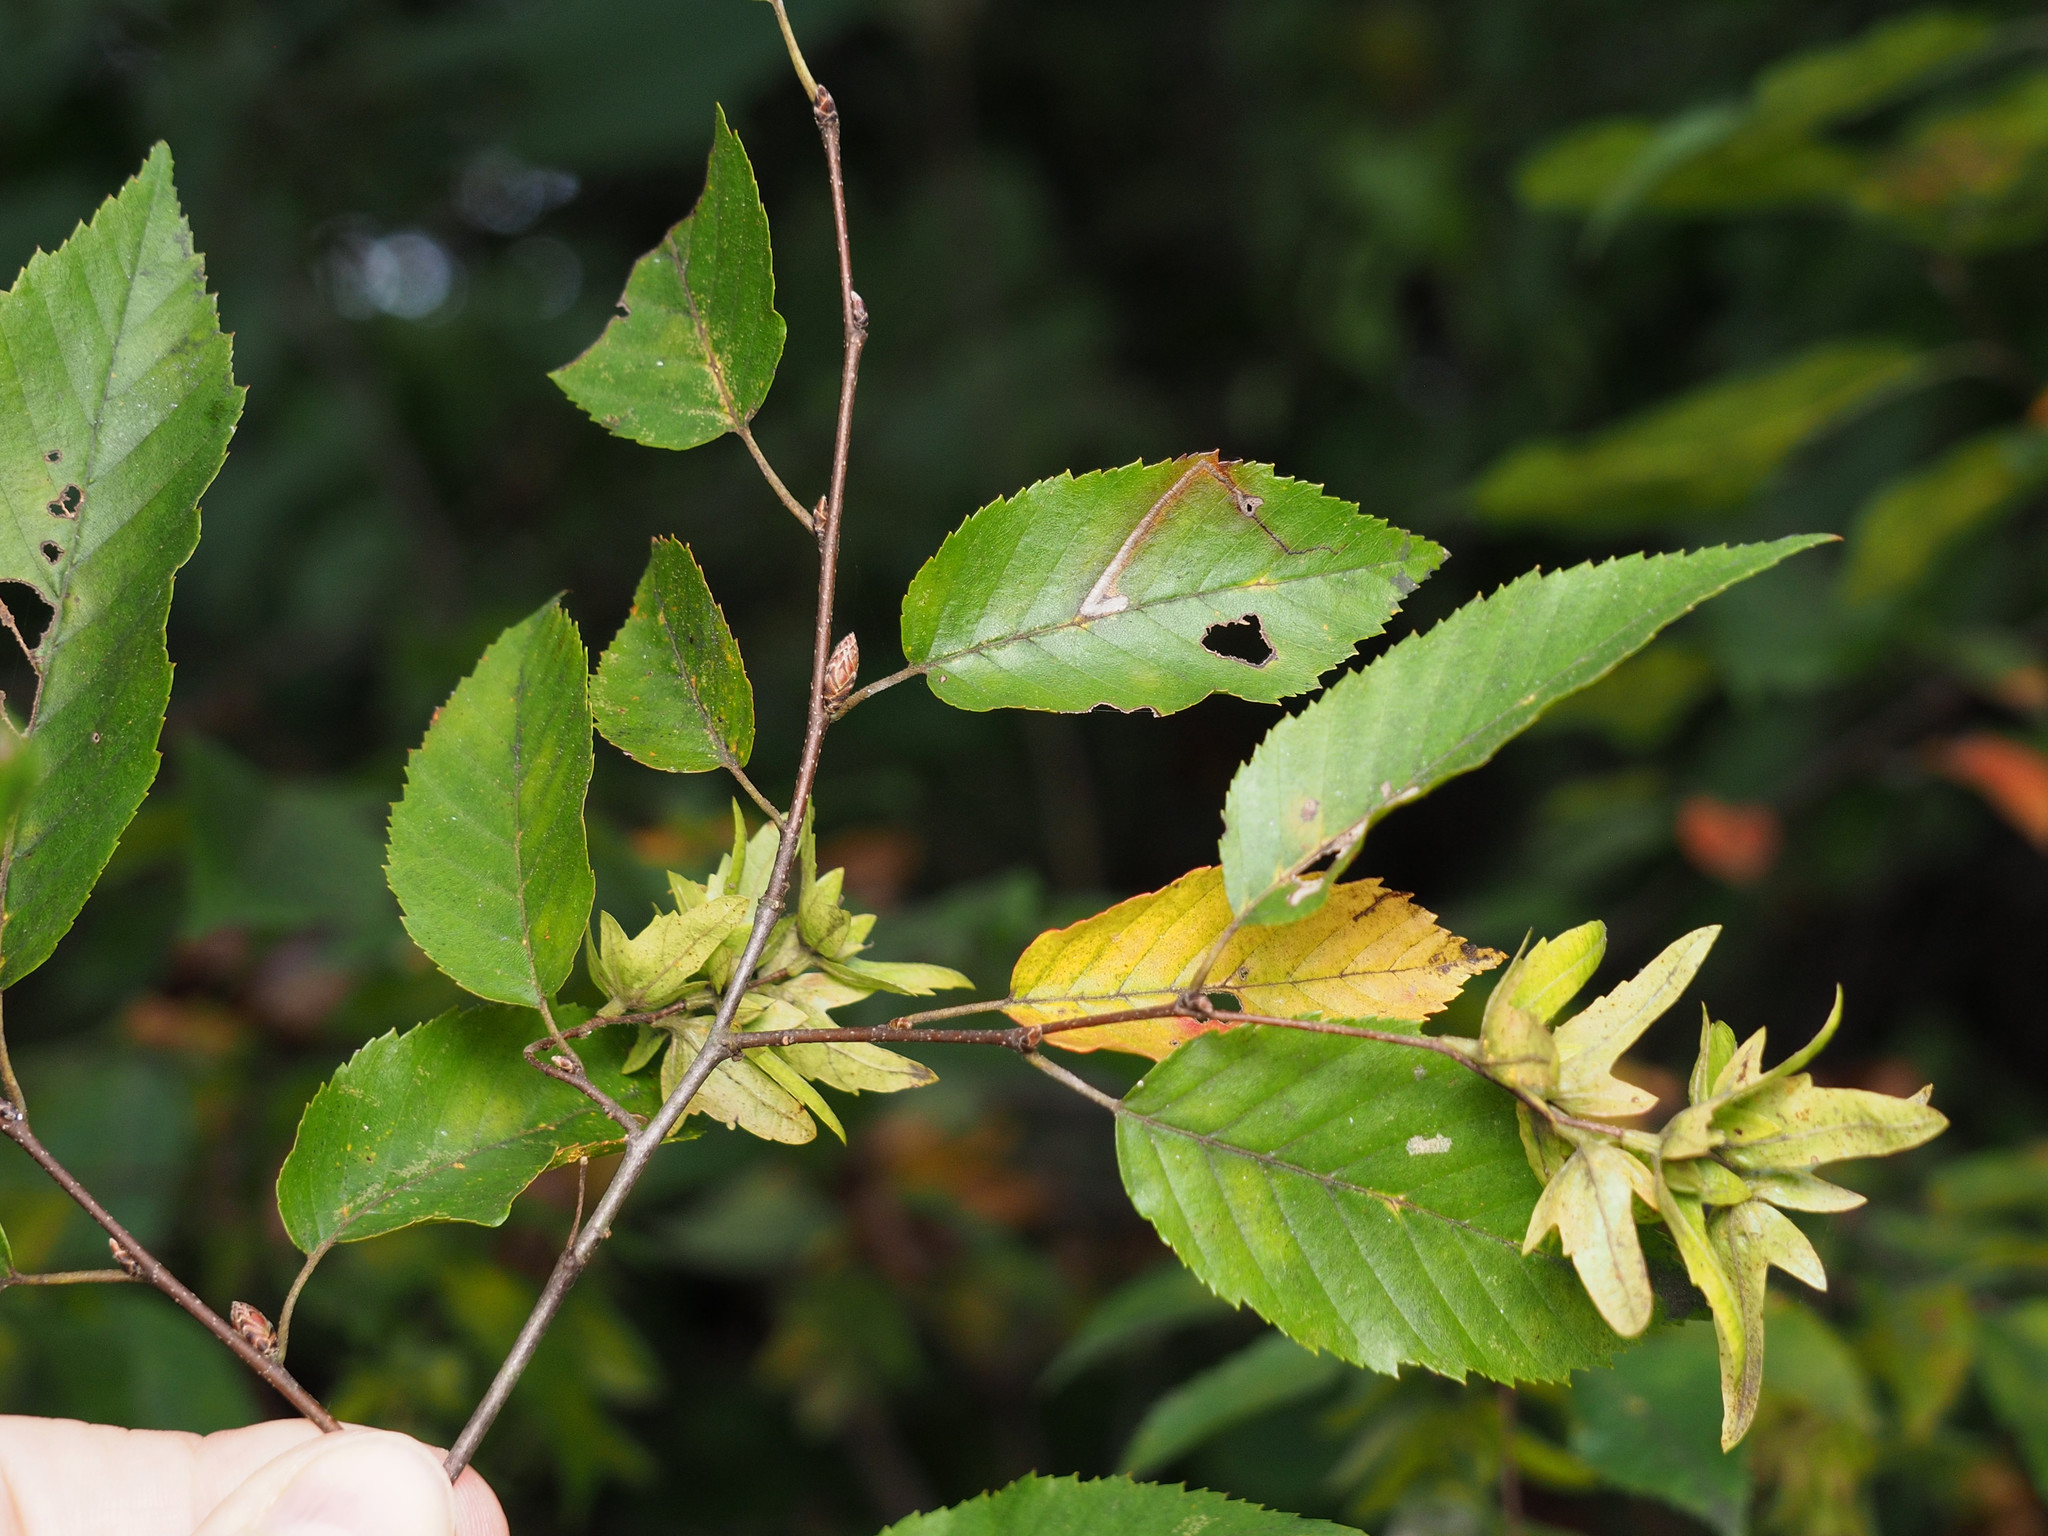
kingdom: Plantae
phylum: Tracheophyta
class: Magnoliopsida
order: Fagales
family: Betulaceae
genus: Carpinus
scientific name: Carpinus caroliniana
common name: American hornbeam
